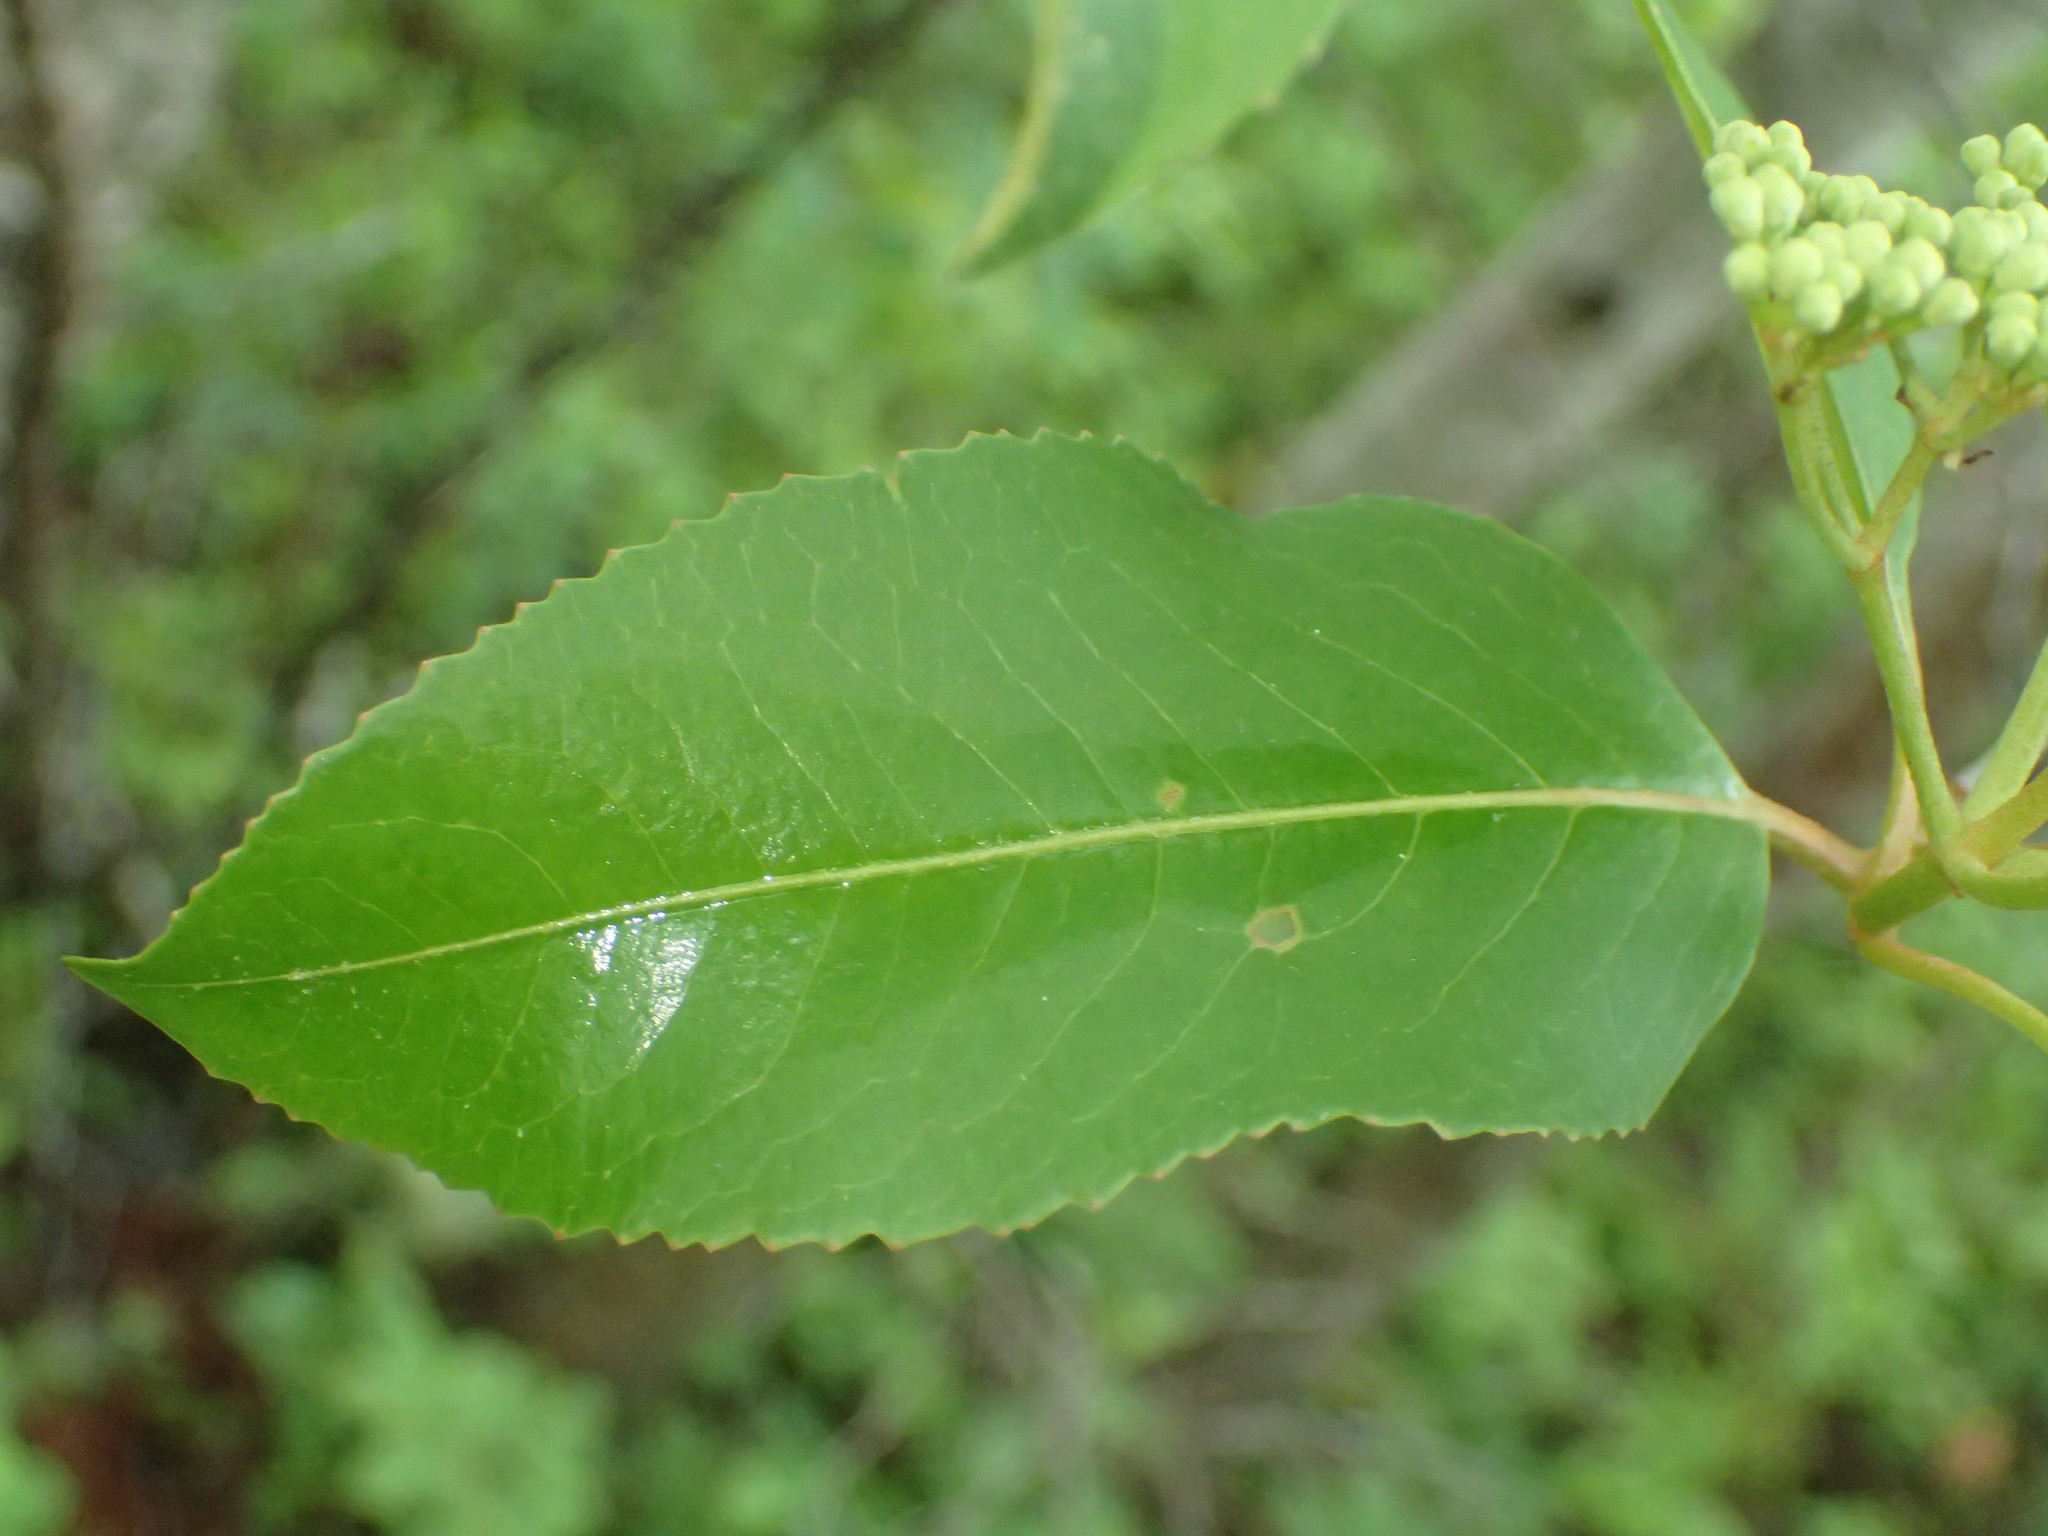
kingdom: Plantae
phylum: Tracheophyta
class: Magnoliopsida
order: Dipsacales
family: Viburnaceae
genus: Viburnum
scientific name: Viburnum cassinoides
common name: Swamp haw
